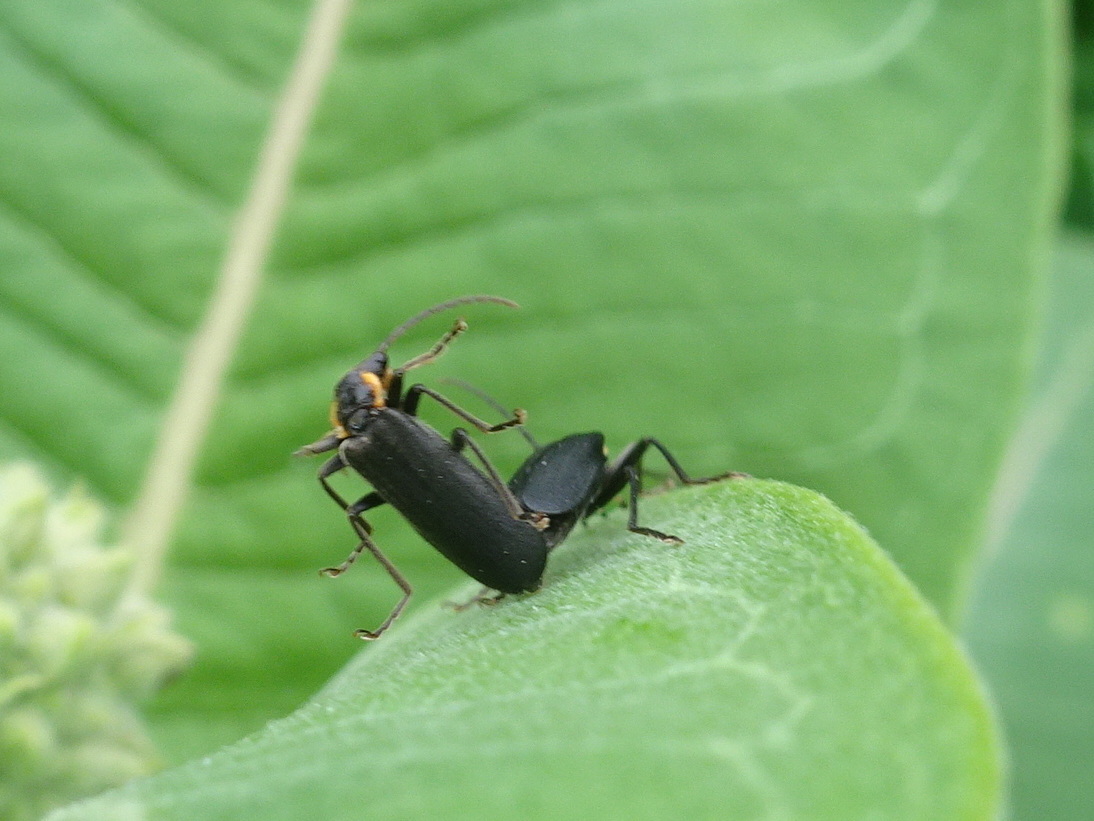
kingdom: Animalia
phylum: Arthropoda
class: Insecta
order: Coleoptera
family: Cantharidae
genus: Podabrus
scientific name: Podabrus rugosulus
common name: Wrinkled soldier beetle
